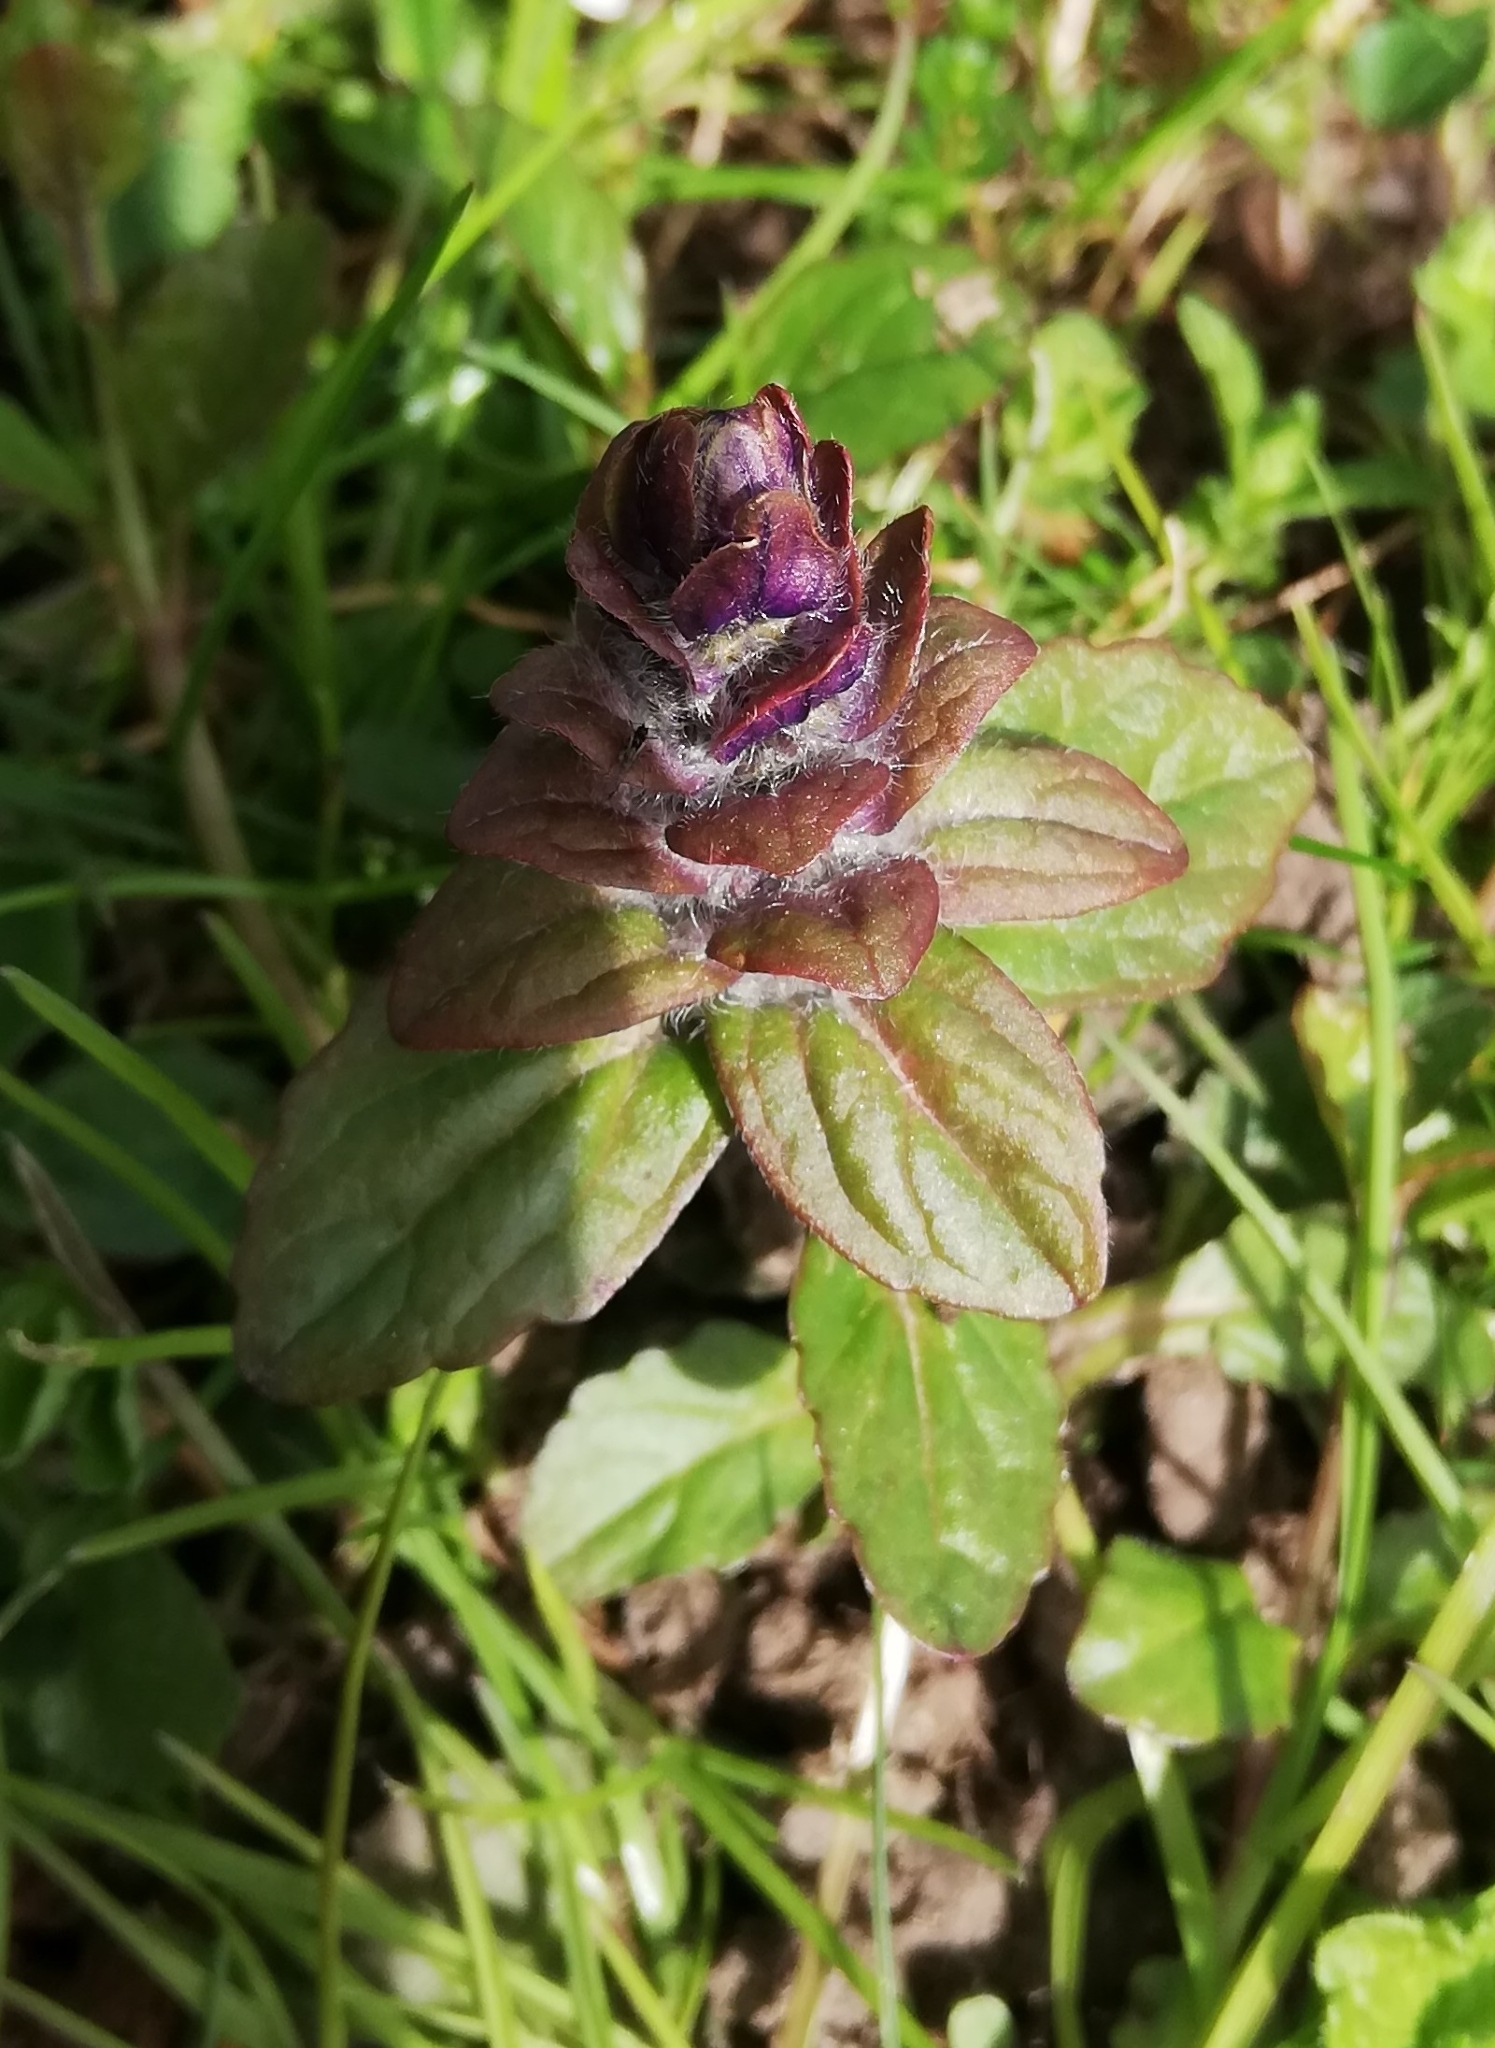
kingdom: Plantae
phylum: Tracheophyta
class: Magnoliopsida
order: Lamiales
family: Lamiaceae
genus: Ajuga
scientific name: Ajuga reptans
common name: Bugle
